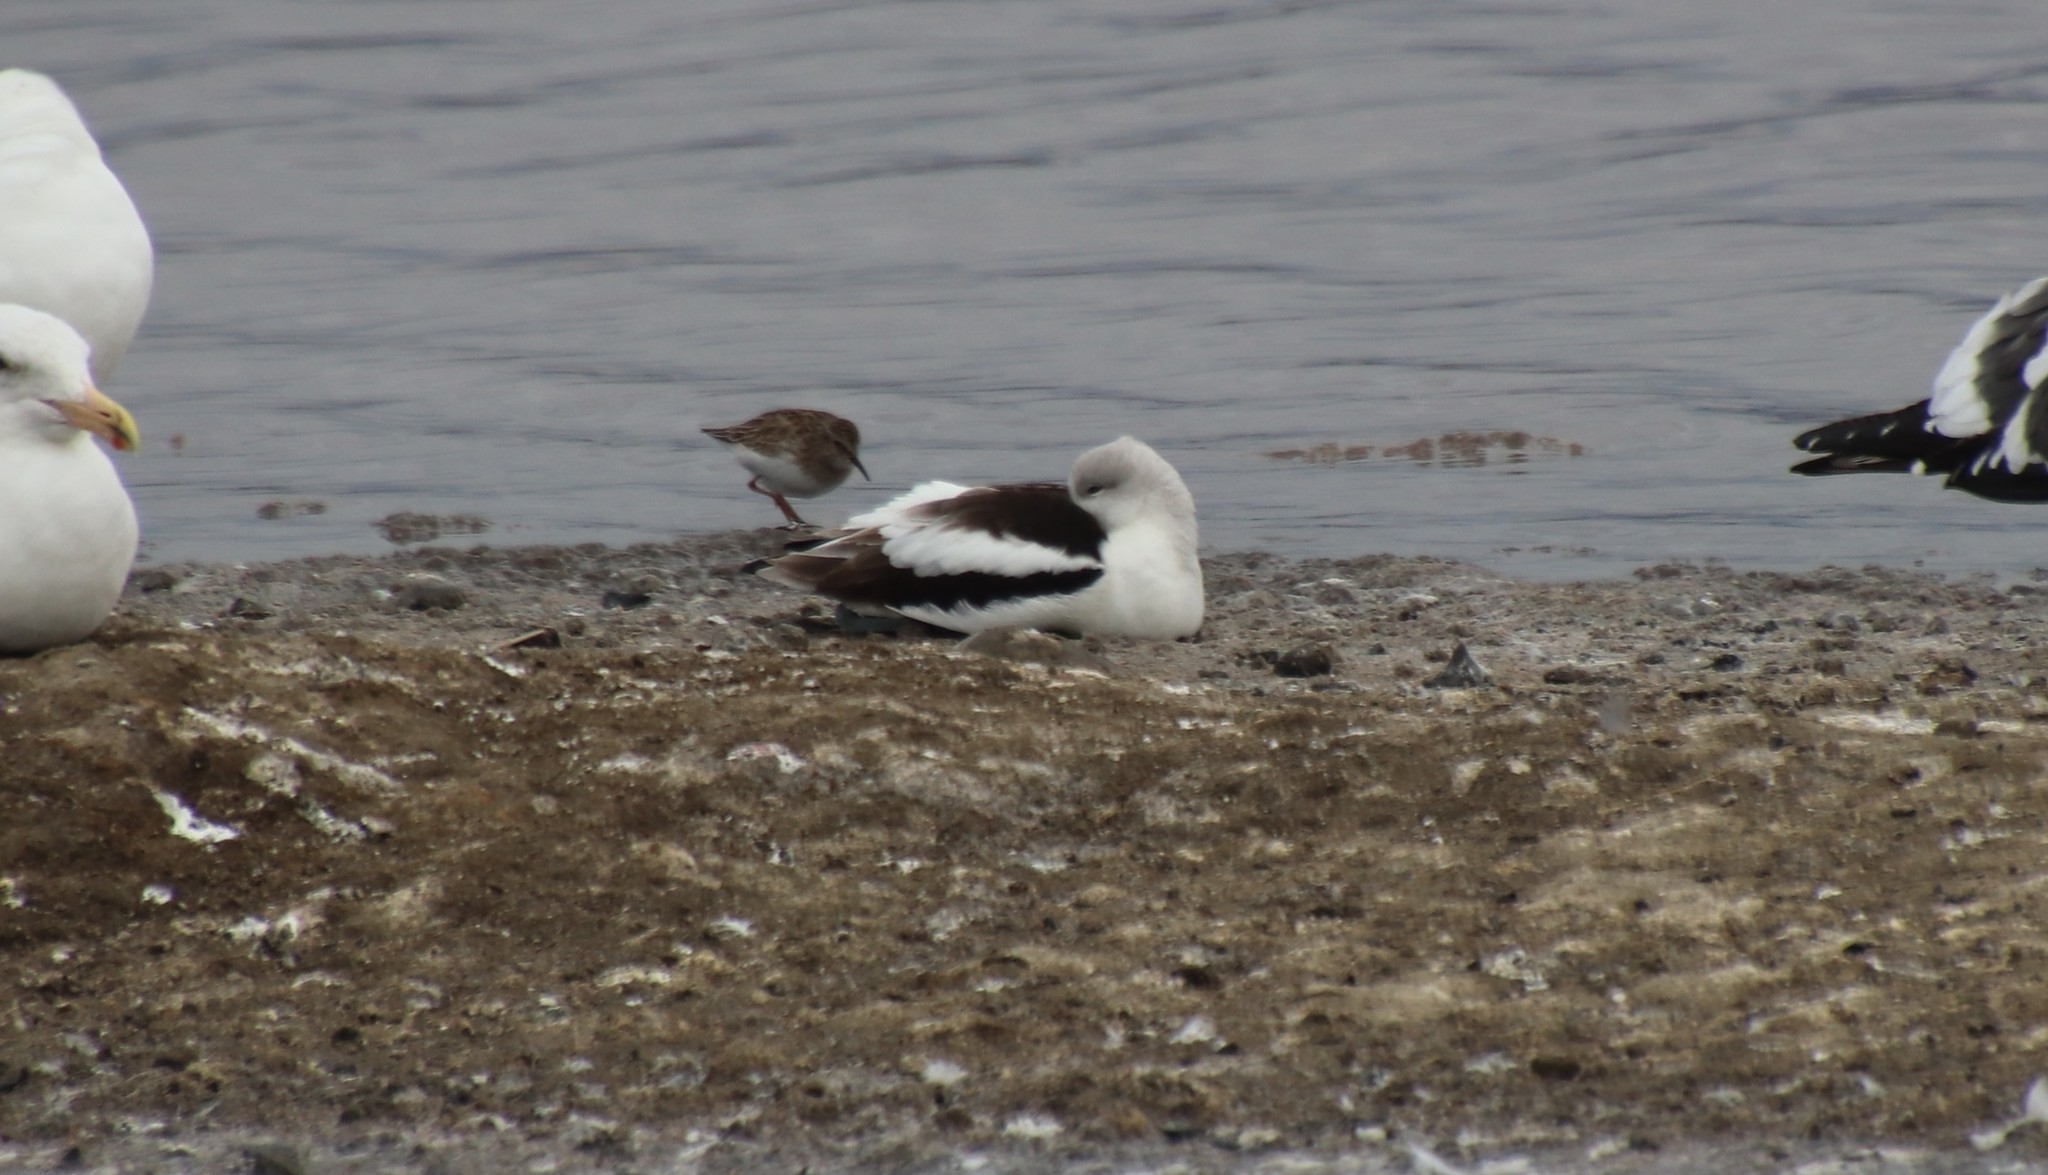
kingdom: Animalia
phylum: Chordata
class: Aves
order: Charadriiformes
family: Recurvirostridae
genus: Recurvirostra
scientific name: Recurvirostra americana
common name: American avocet
